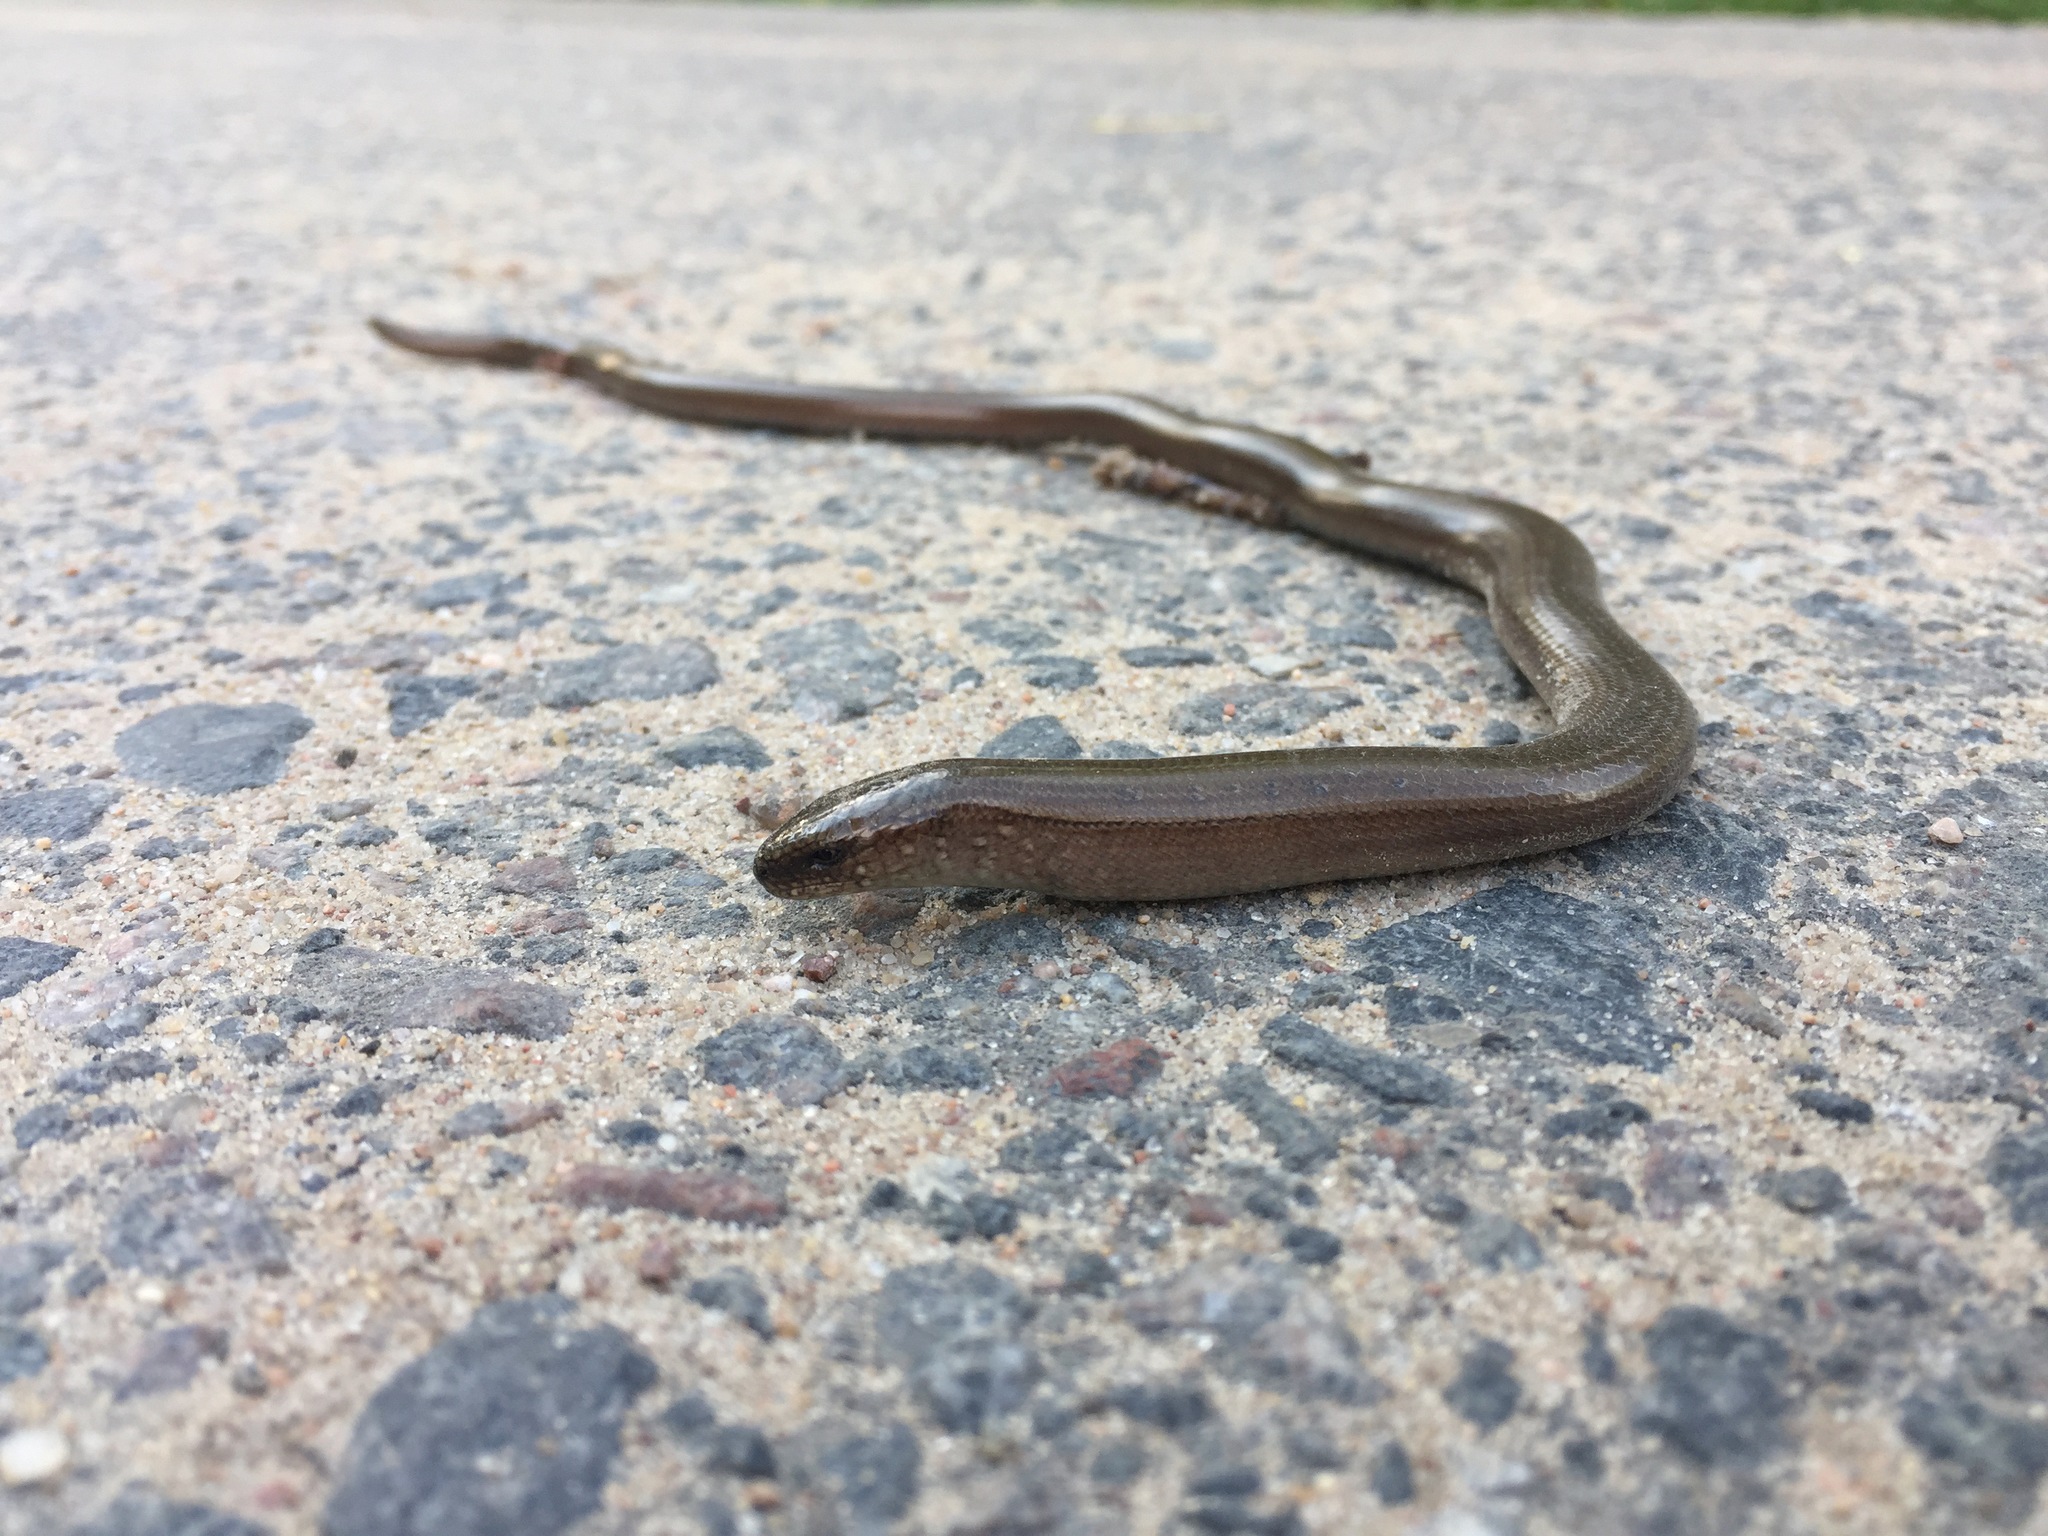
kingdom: Animalia
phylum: Chordata
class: Squamata
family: Anguidae
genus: Anguis
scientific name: Anguis colchica
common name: Slow worm
